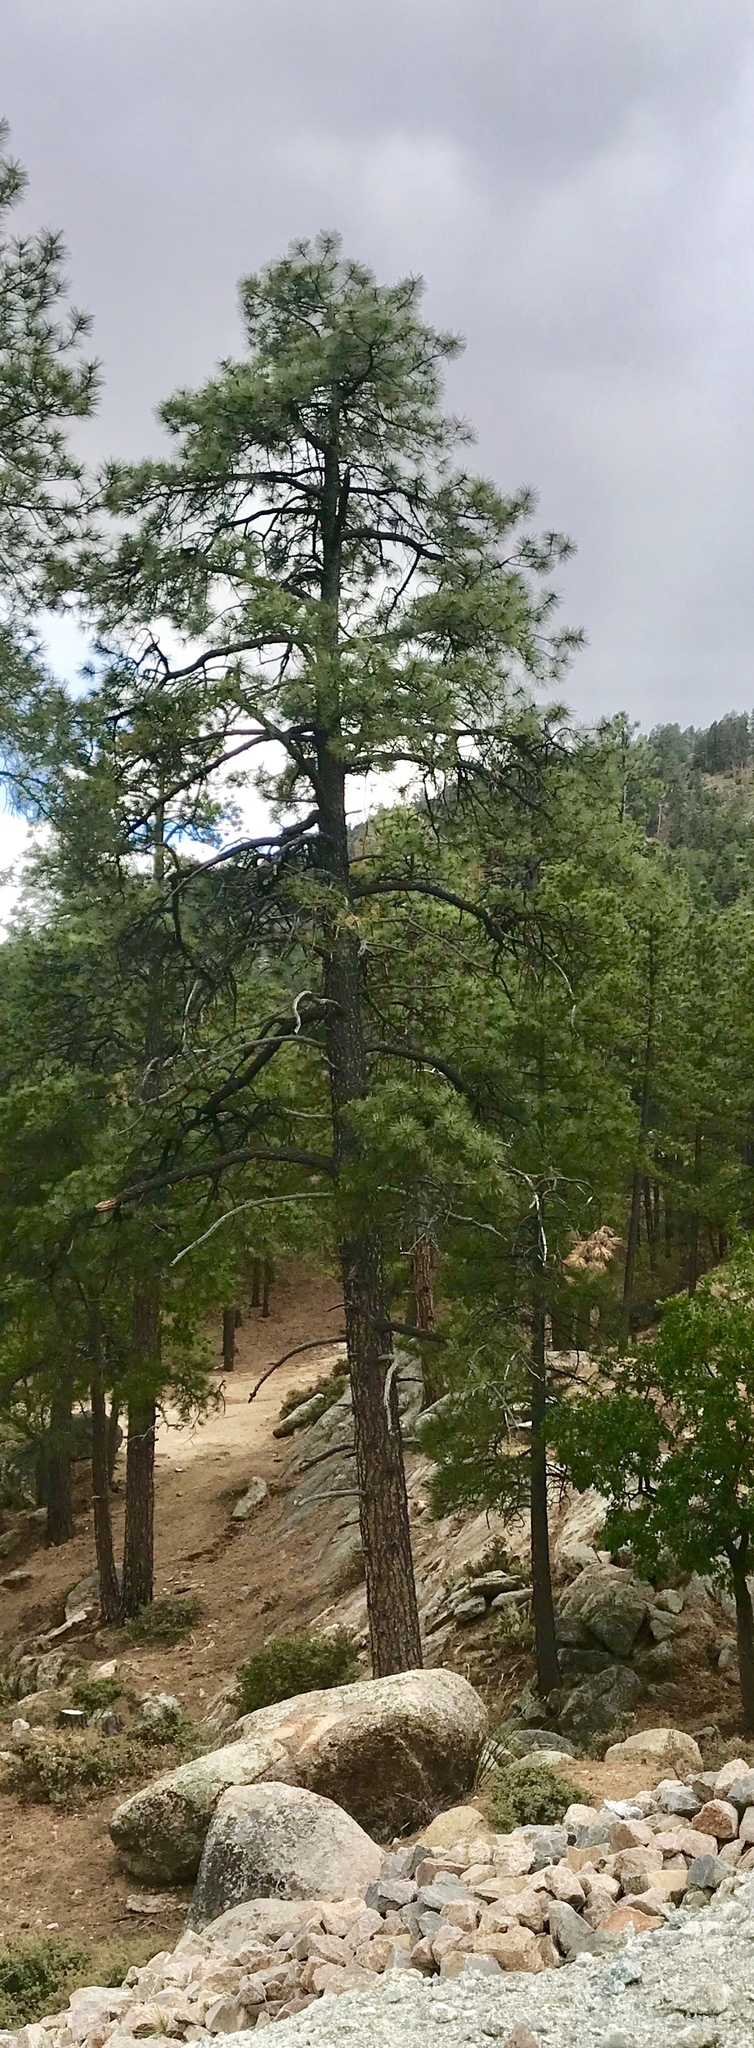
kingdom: Plantae
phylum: Tracheophyta
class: Pinopsida
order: Pinales
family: Pinaceae
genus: Pinus
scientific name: Pinus ponderosa
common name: Western yellow-pine
